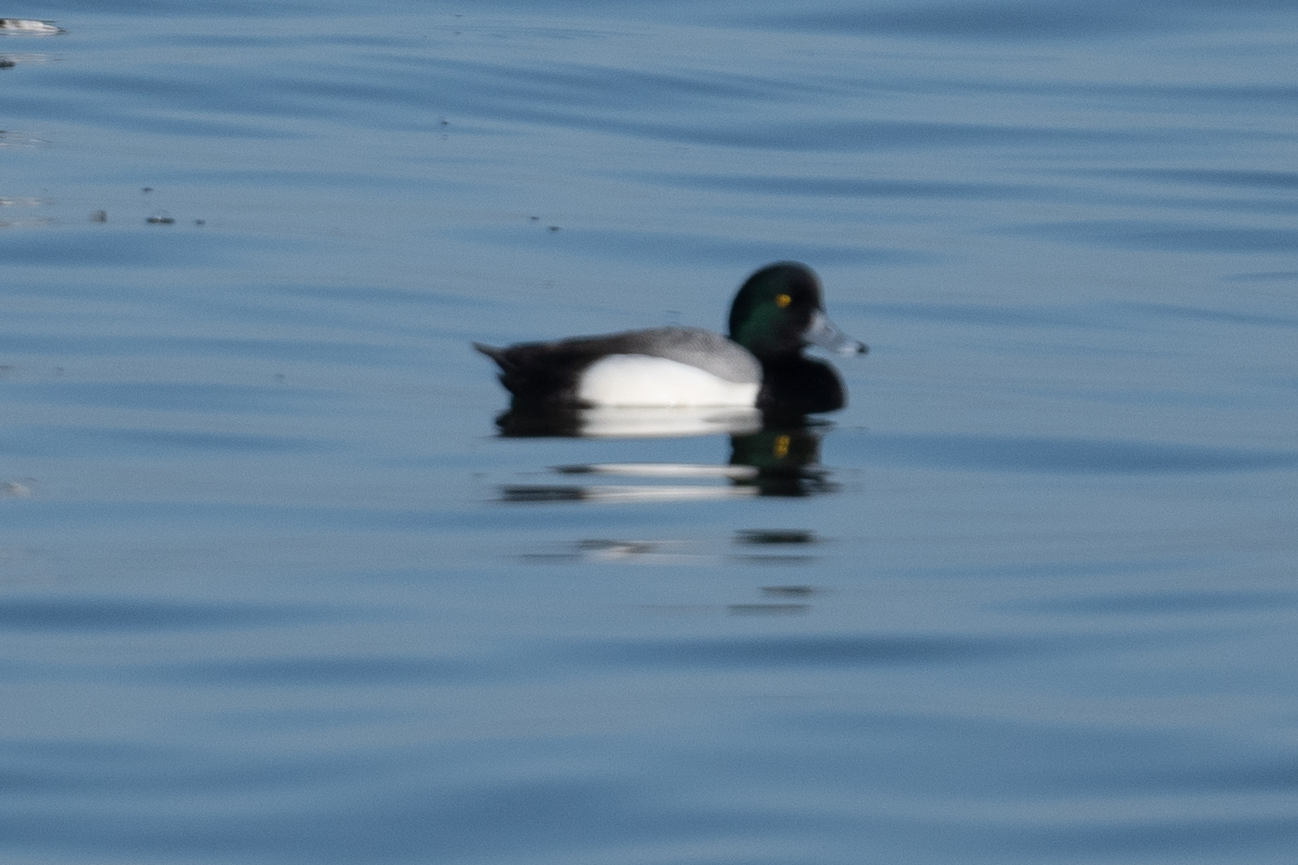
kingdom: Animalia
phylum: Chordata
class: Aves
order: Anseriformes
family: Anatidae
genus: Aythya
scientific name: Aythya marila
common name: Greater scaup
